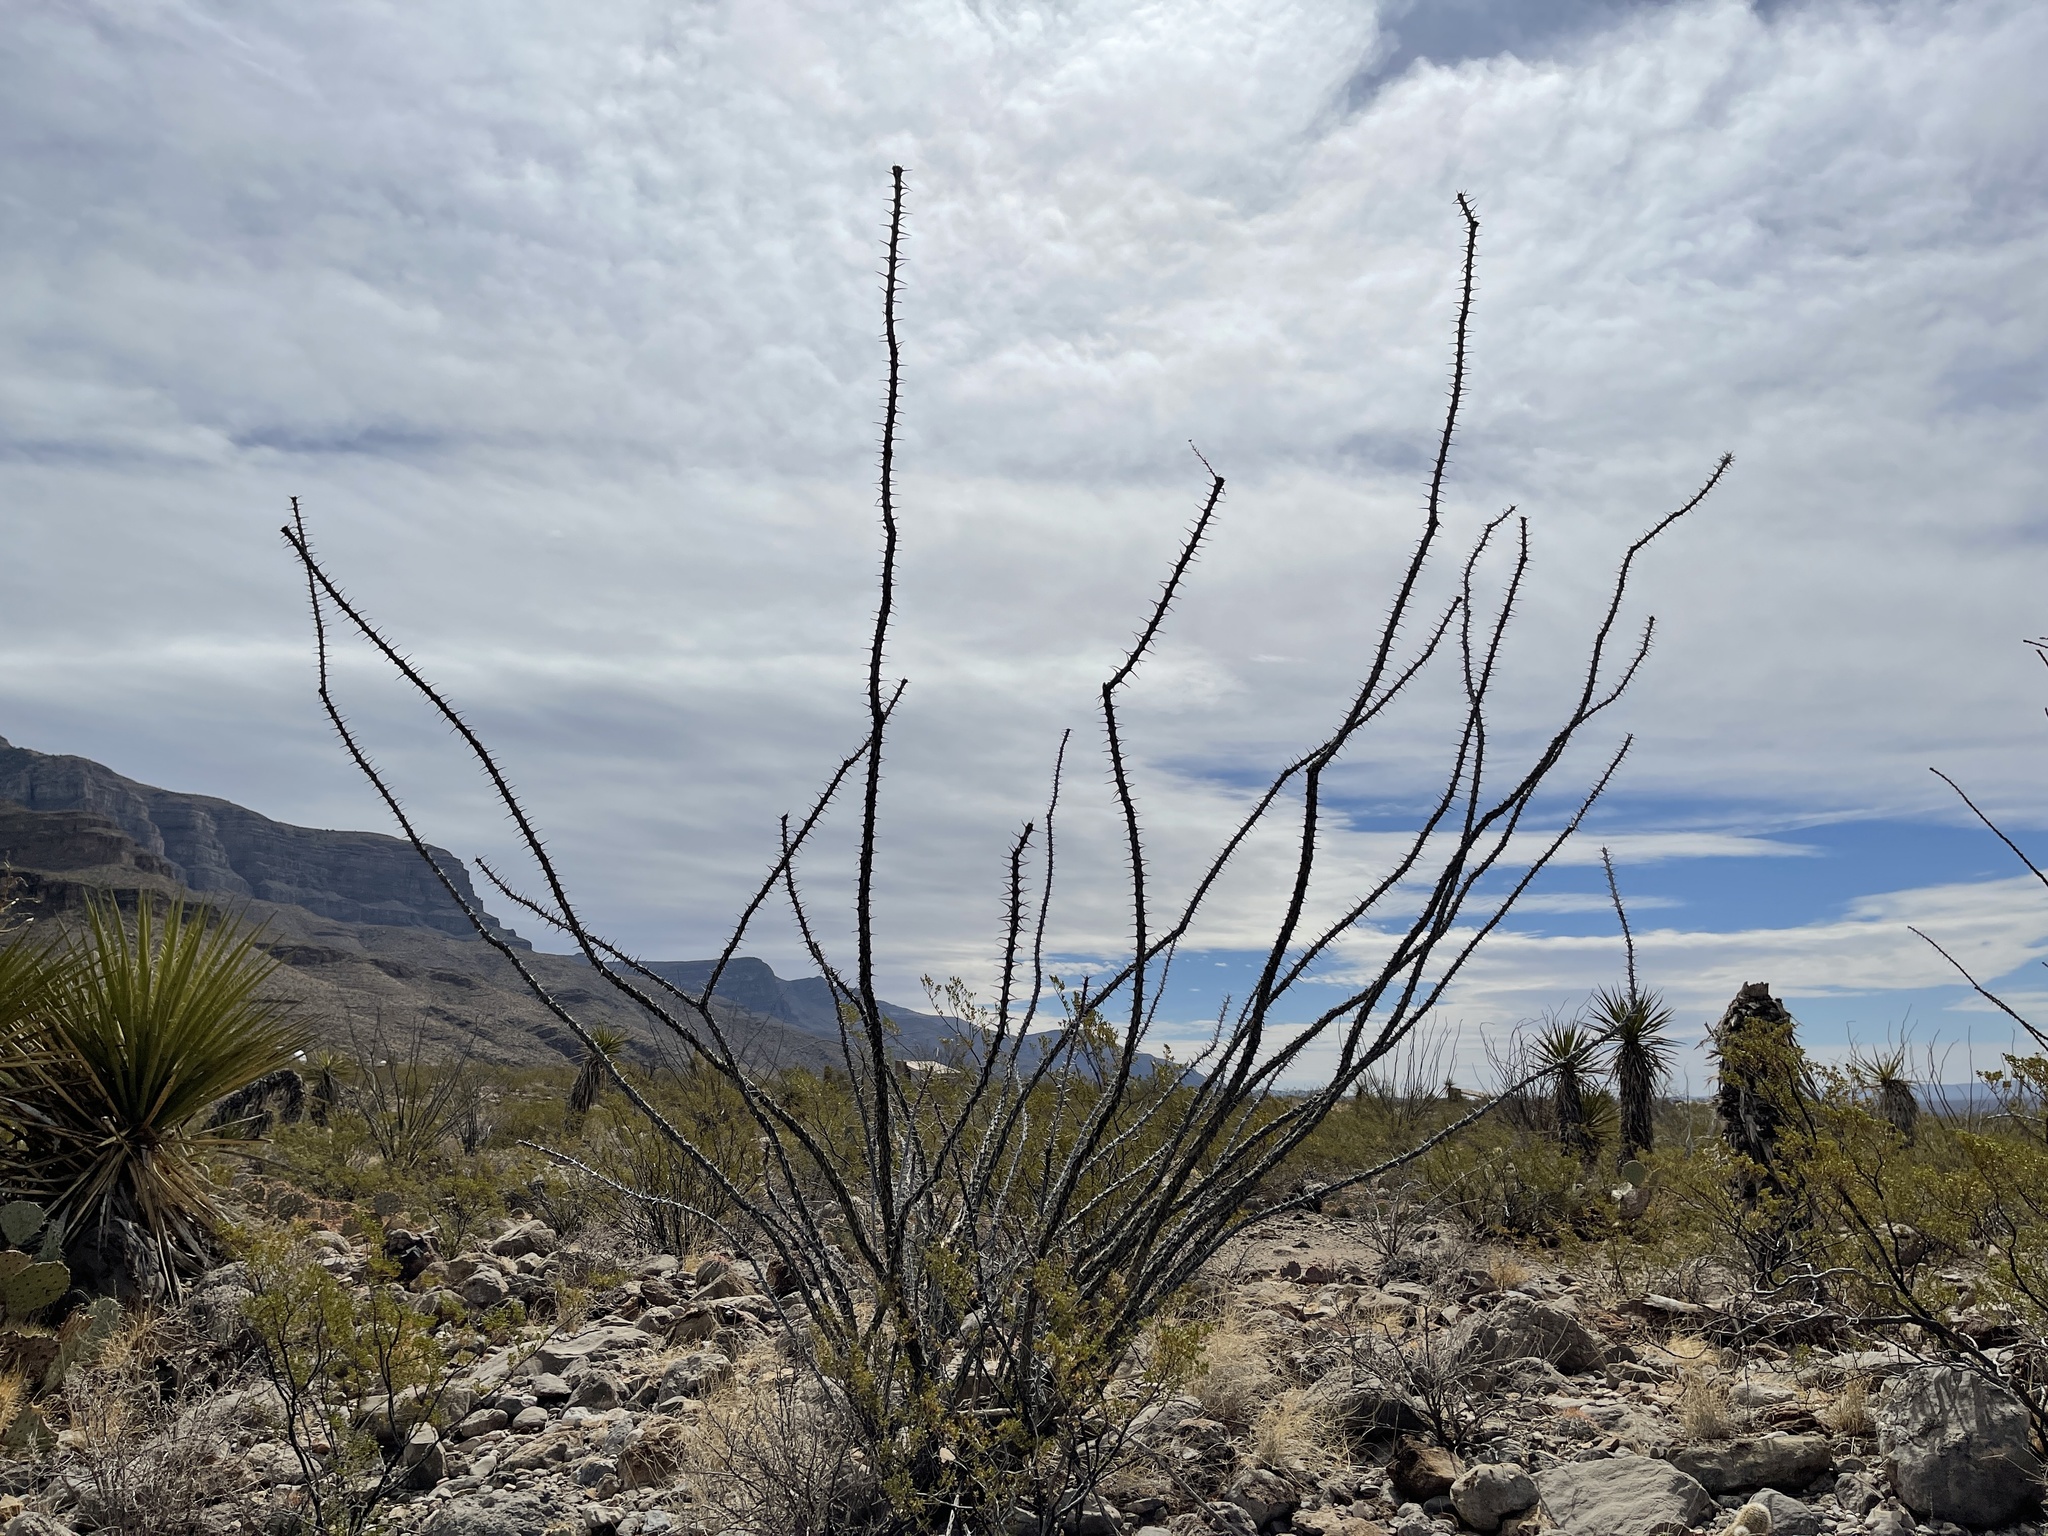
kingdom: Plantae
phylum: Tracheophyta
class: Magnoliopsida
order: Ericales
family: Fouquieriaceae
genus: Fouquieria
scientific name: Fouquieria splendens
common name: Vine-cactus
